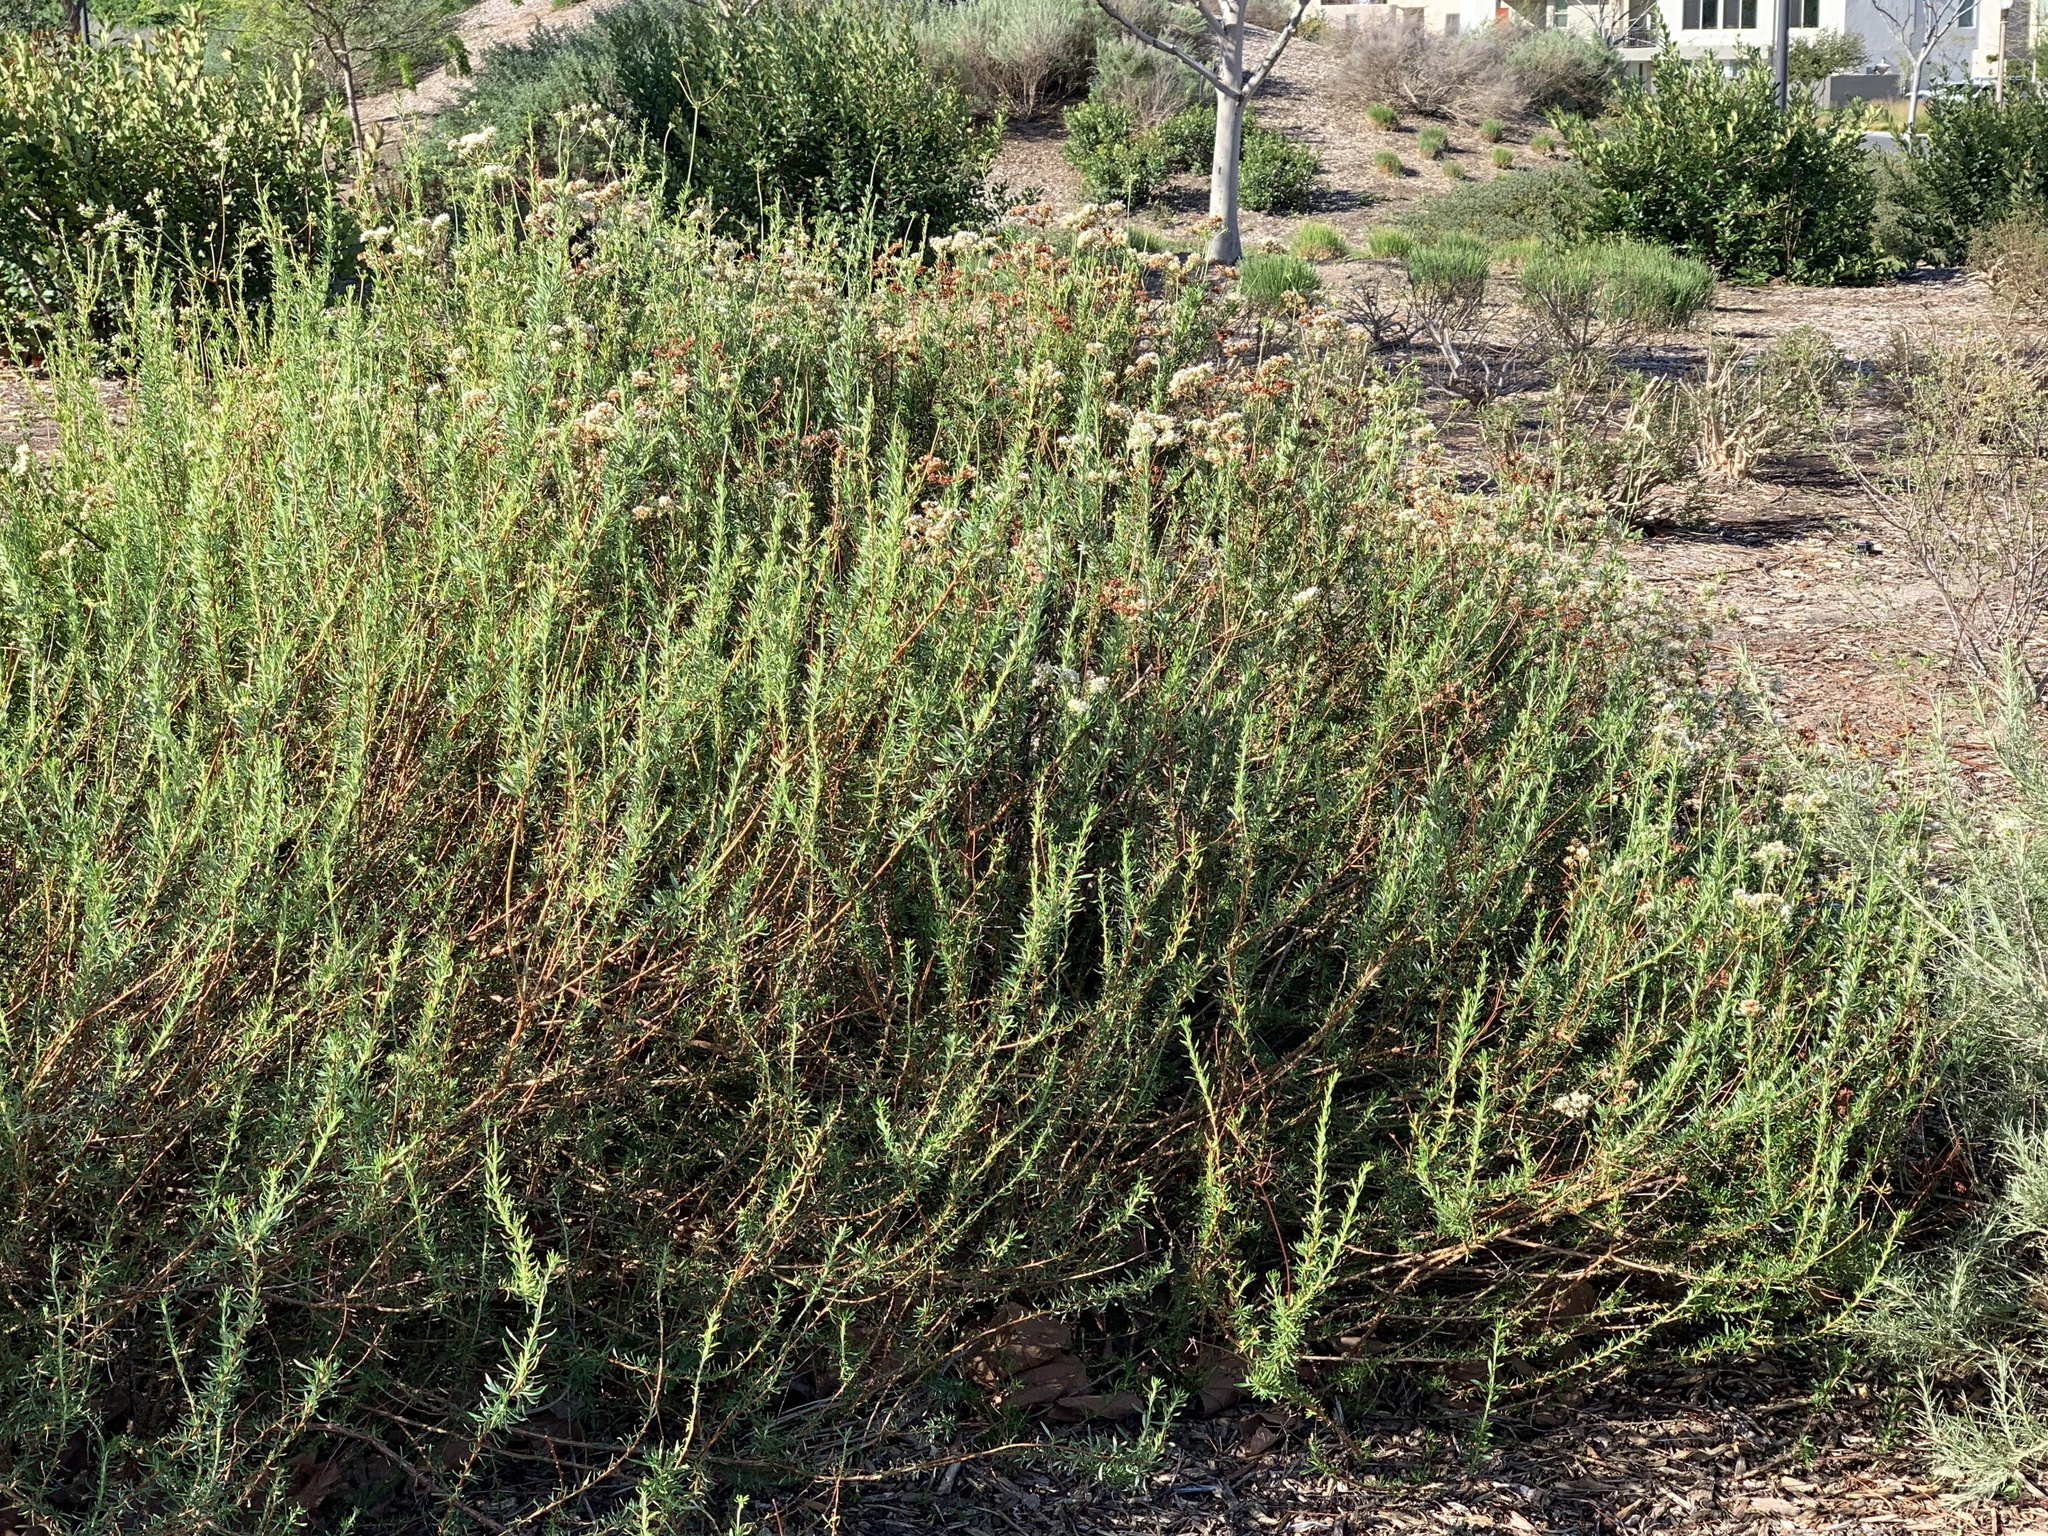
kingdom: Plantae
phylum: Tracheophyta
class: Magnoliopsida
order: Caryophyllales
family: Polygonaceae
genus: Eriogonum
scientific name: Eriogonum fasciculatum
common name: California wild buckwheat
